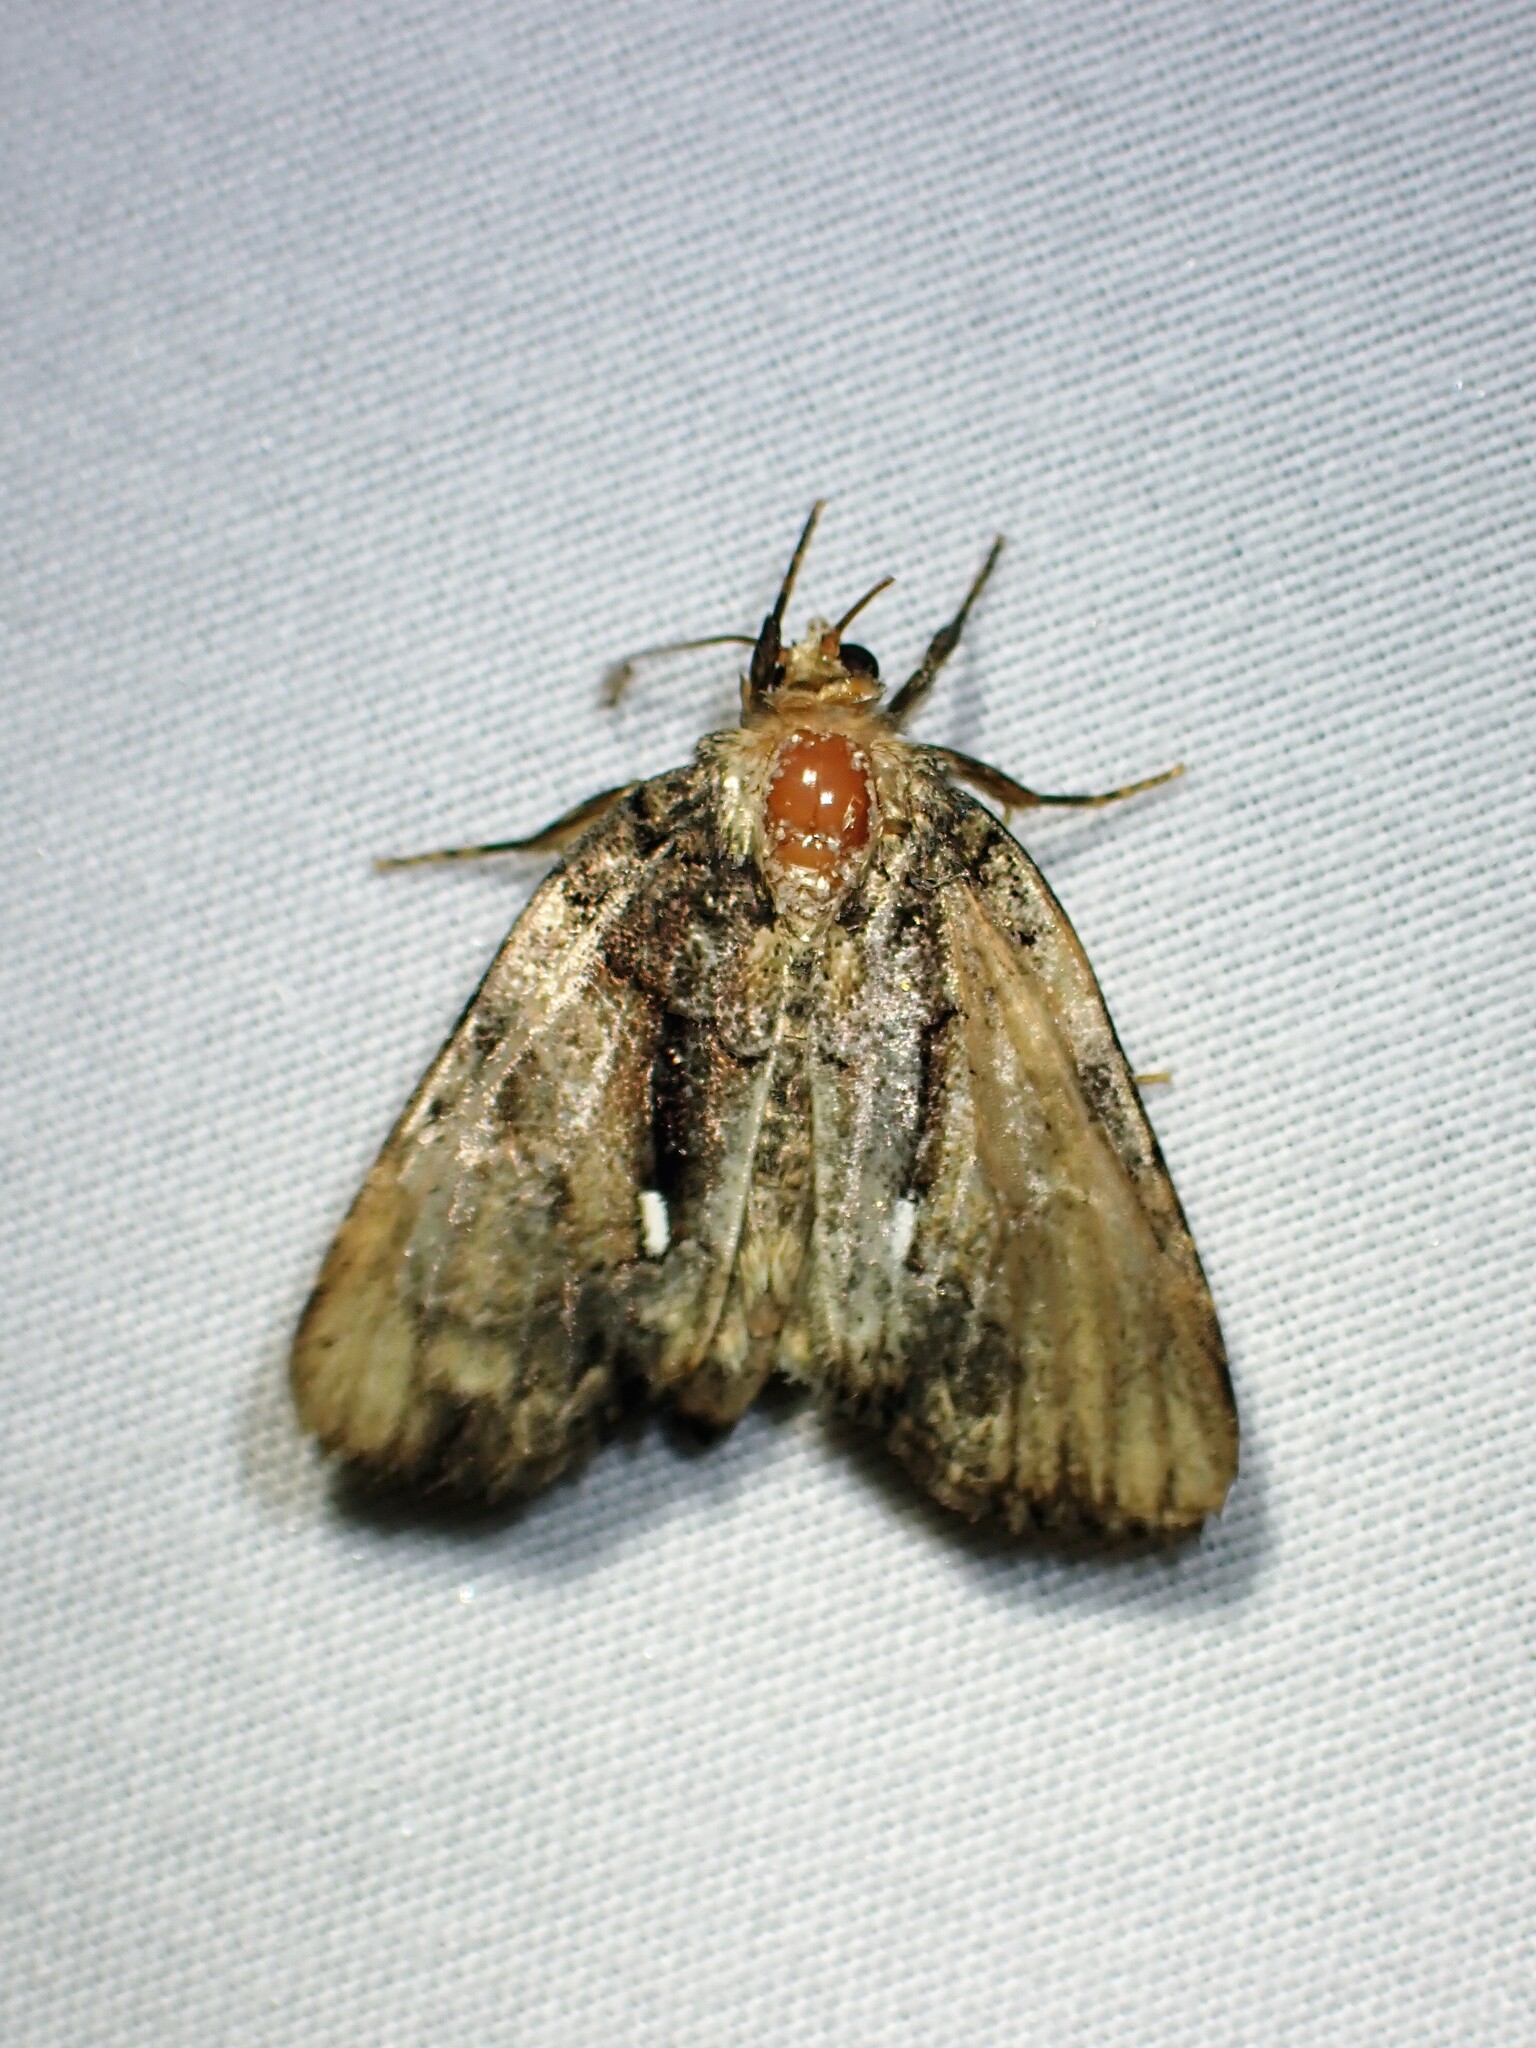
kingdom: Animalia
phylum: Arthropoda
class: Insecta
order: Lepidoptera
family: Noctuidae
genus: Chytonix
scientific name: Chytonix palliatricula
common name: Cloaked marvel
